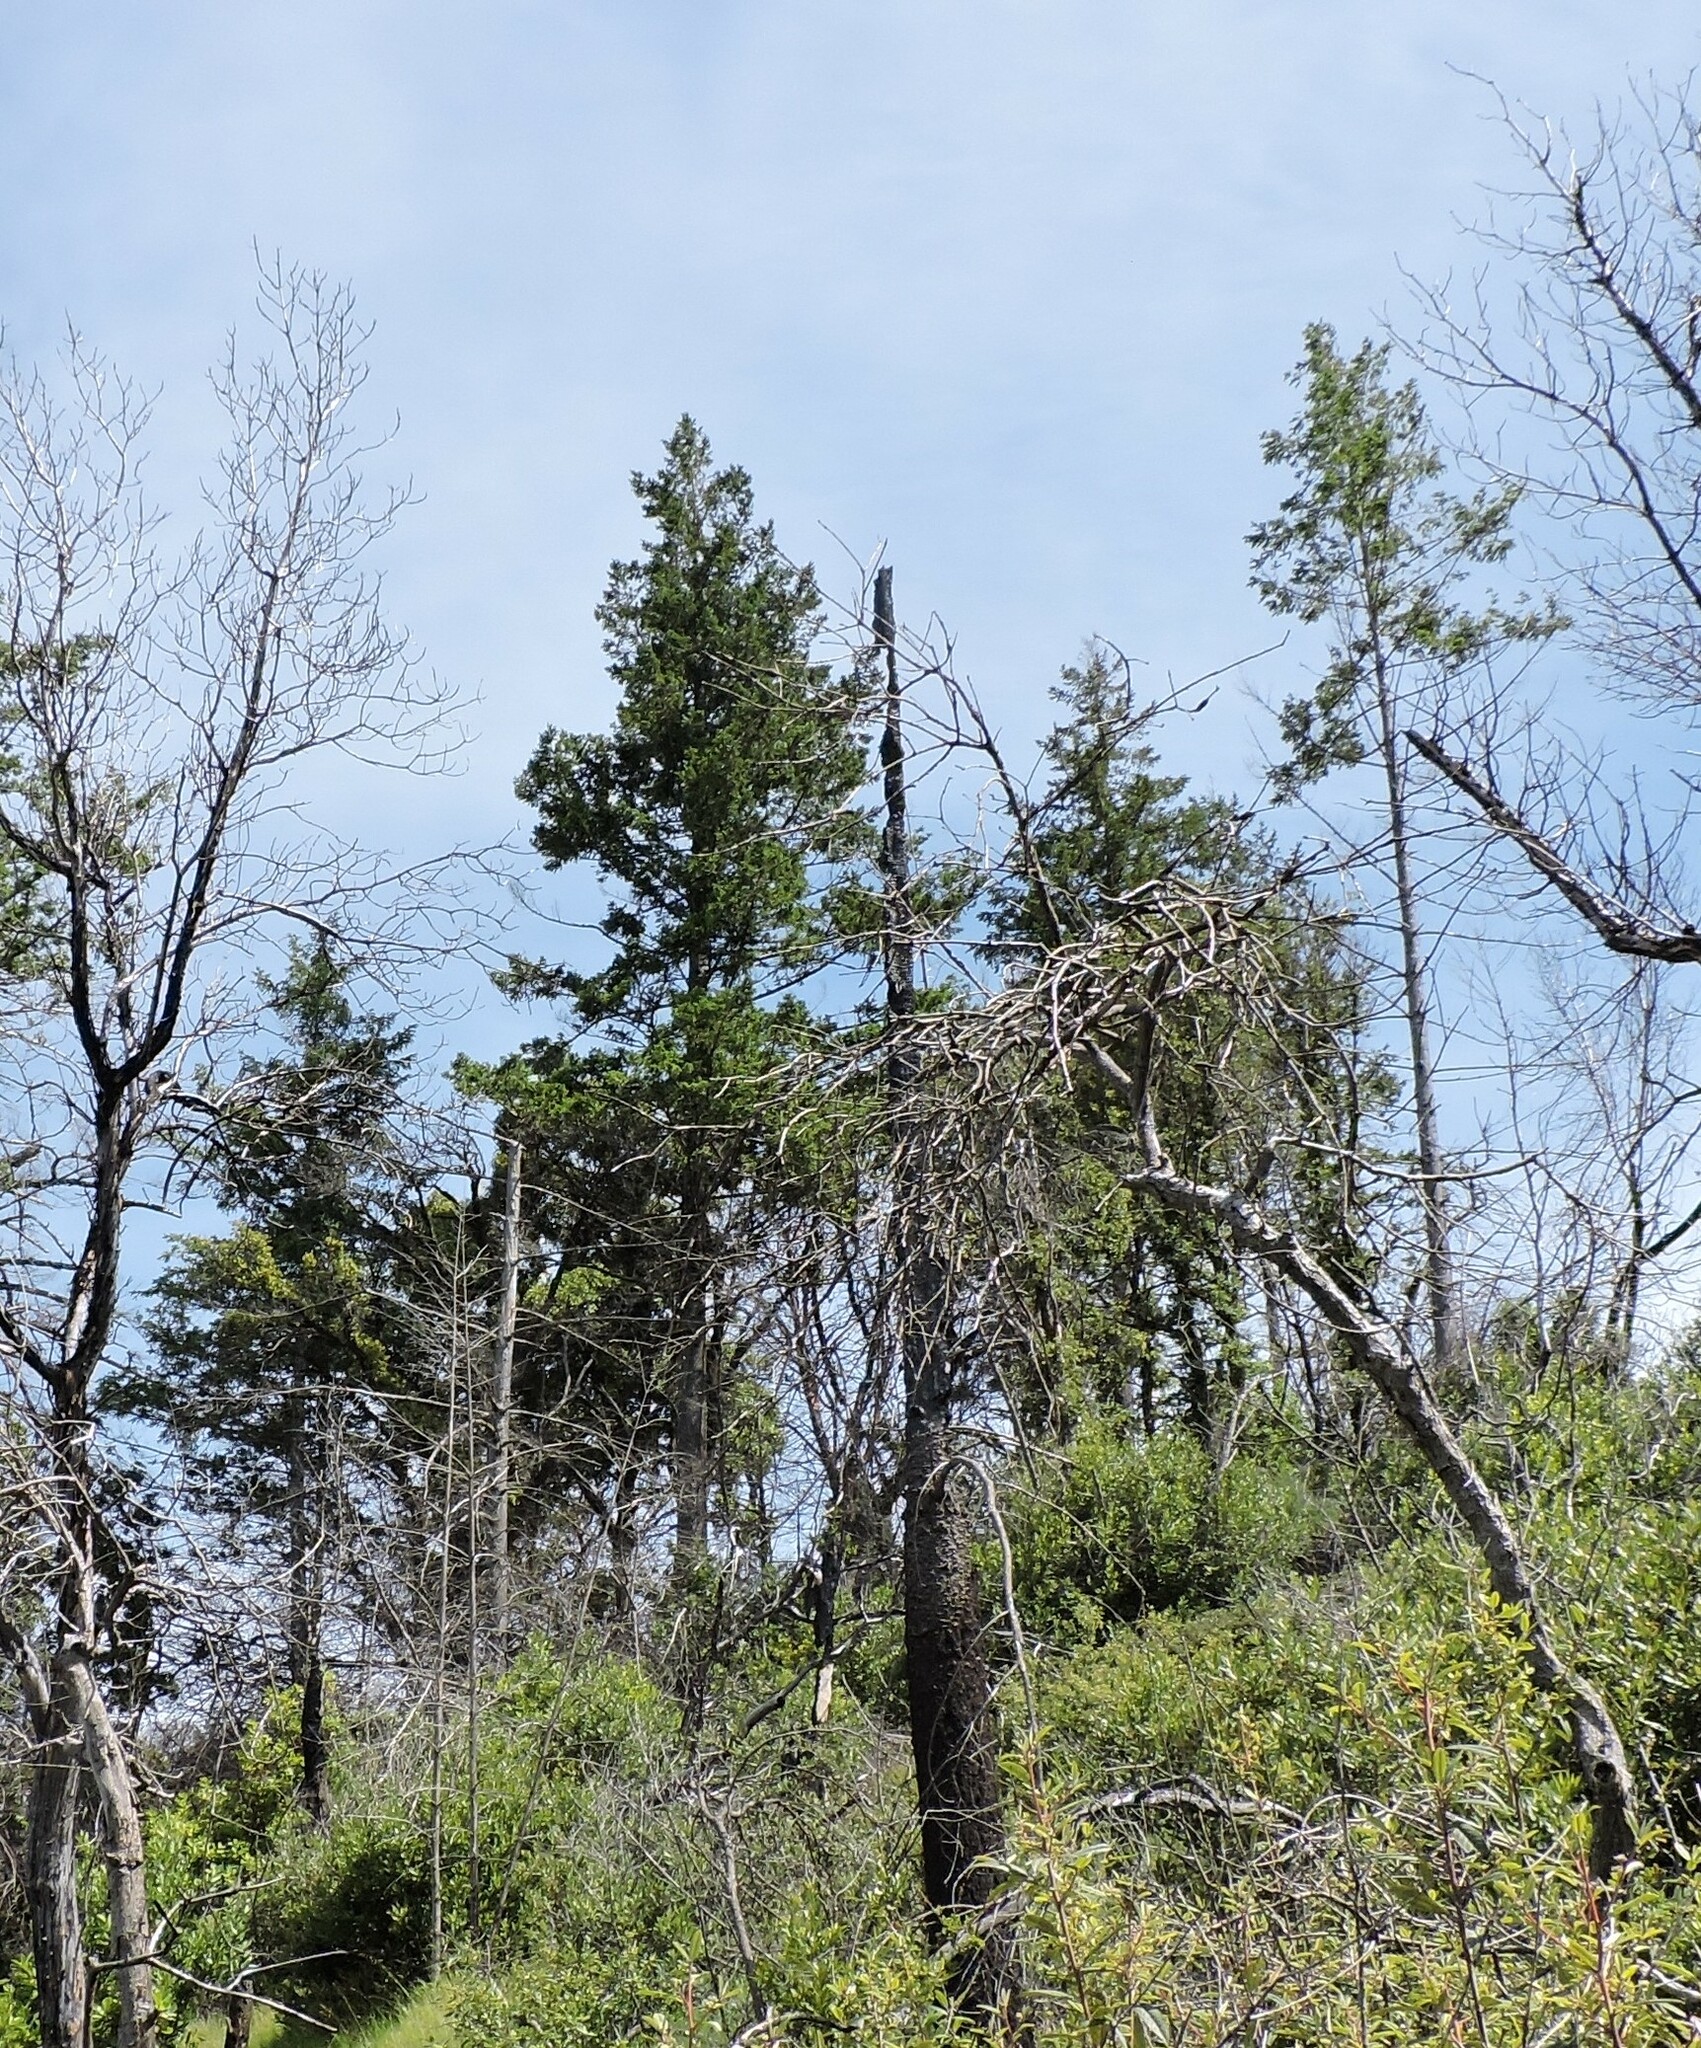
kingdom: Plantae
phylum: Tracheophyta
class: Pinopsida
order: Pinales
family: Pinaceae
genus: Pseudotsuga
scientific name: Pseudotsuga menziesii
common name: Douglas fir
